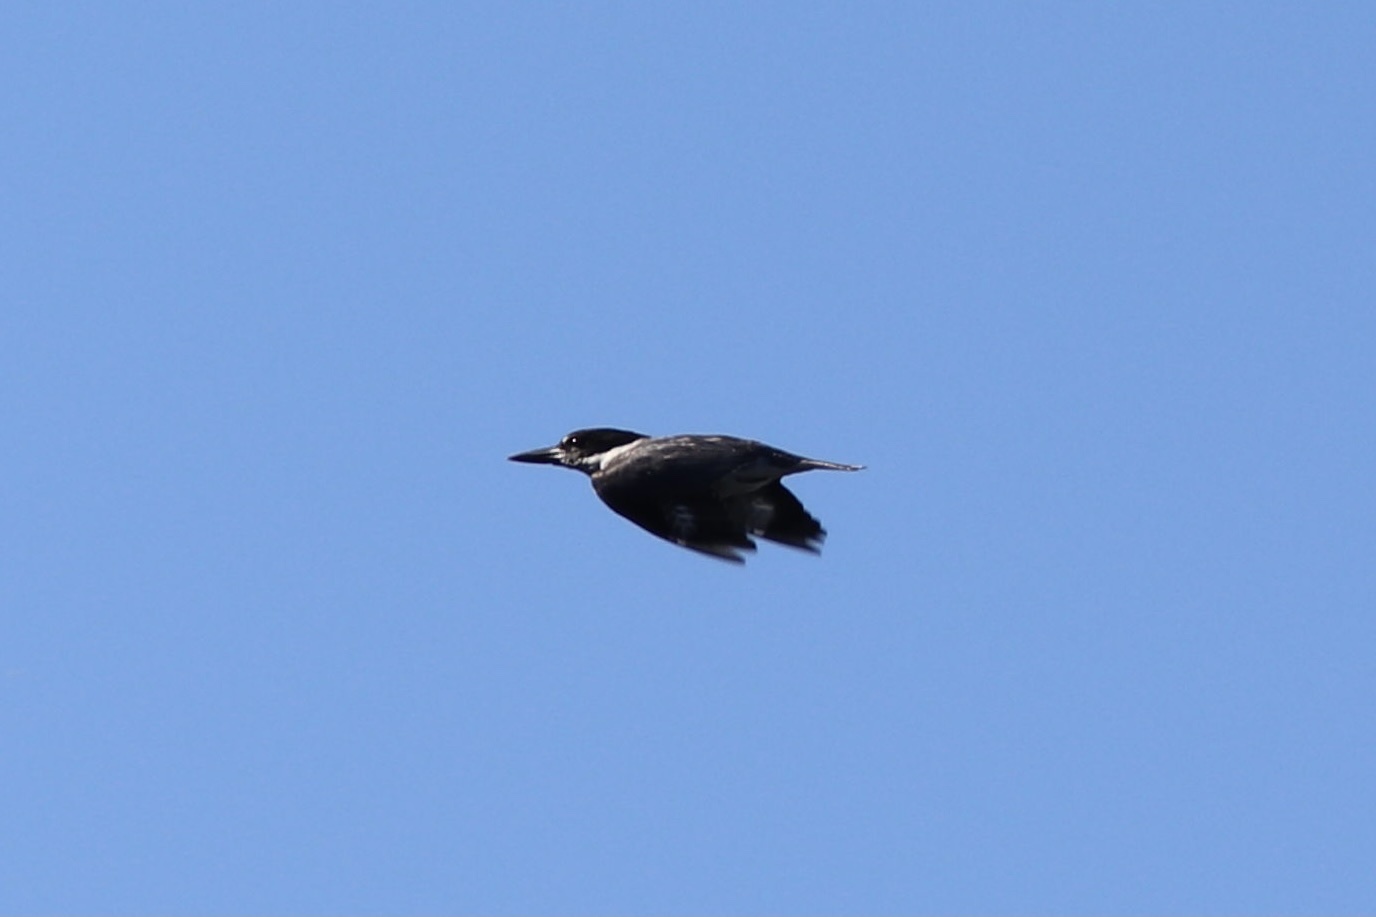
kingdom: Animalia
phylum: Chordata
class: Aves
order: Coraciiformes
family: Alcedinidae
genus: Megaceryle
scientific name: Megaceryle alcyon
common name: Belted kingfisher
